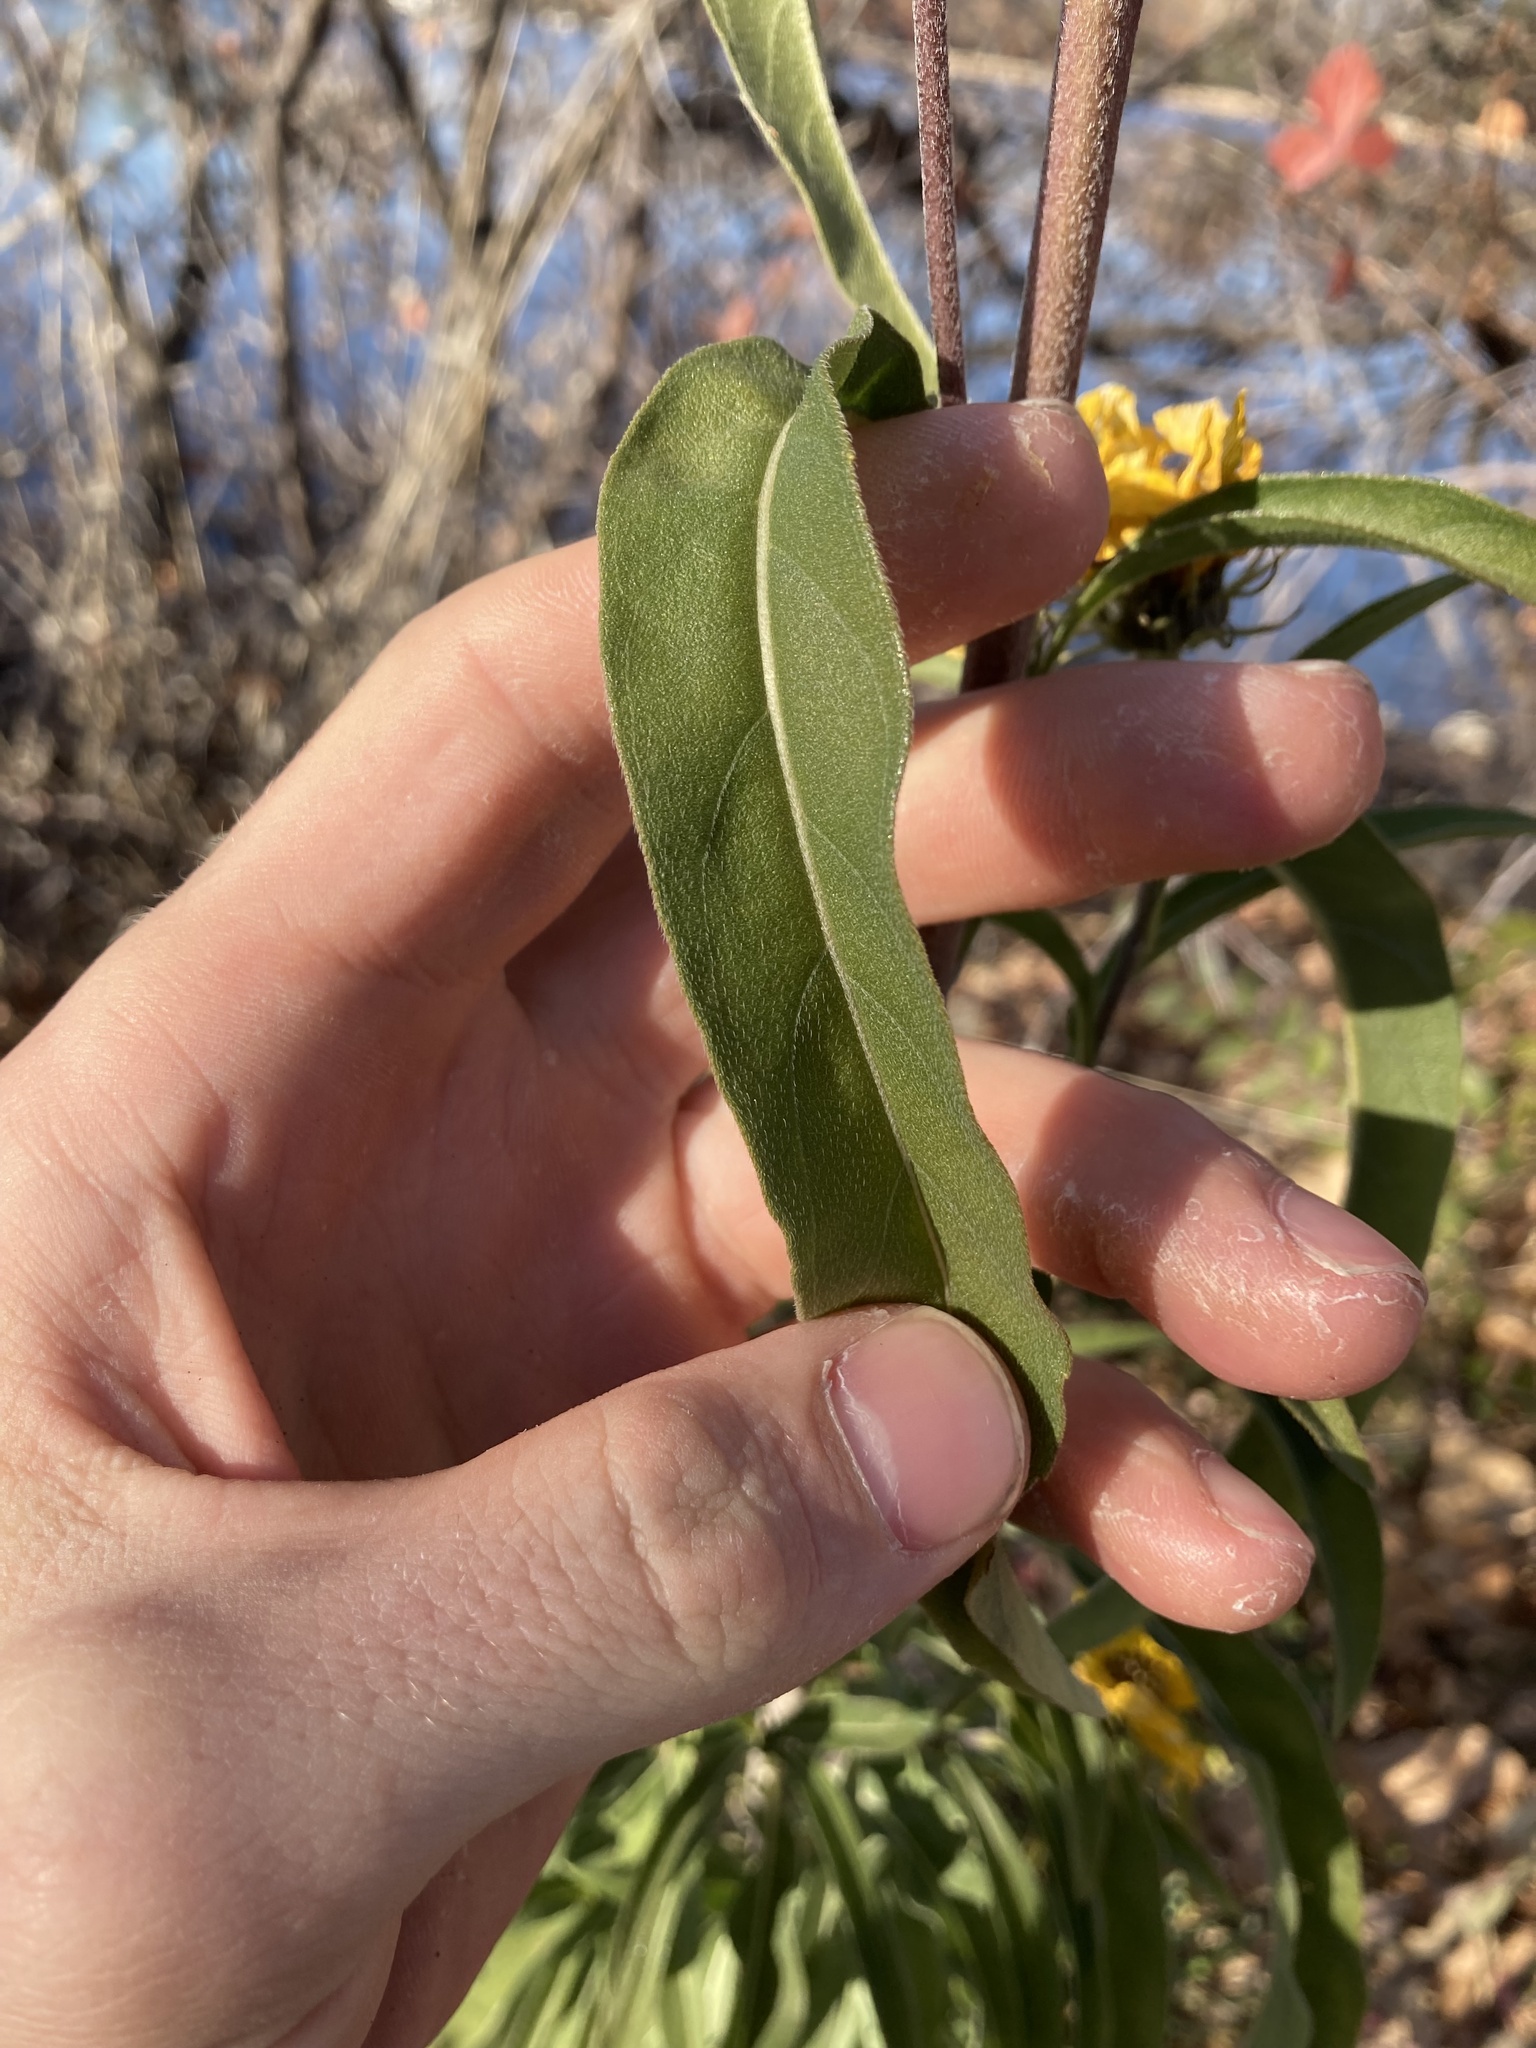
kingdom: Plantae
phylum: Tracheophyta
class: Magnoliopsida
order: Asterales
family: Asteraceae
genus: Helianthus
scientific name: Helianthus maximiliani
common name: Maximilian's sunflower
